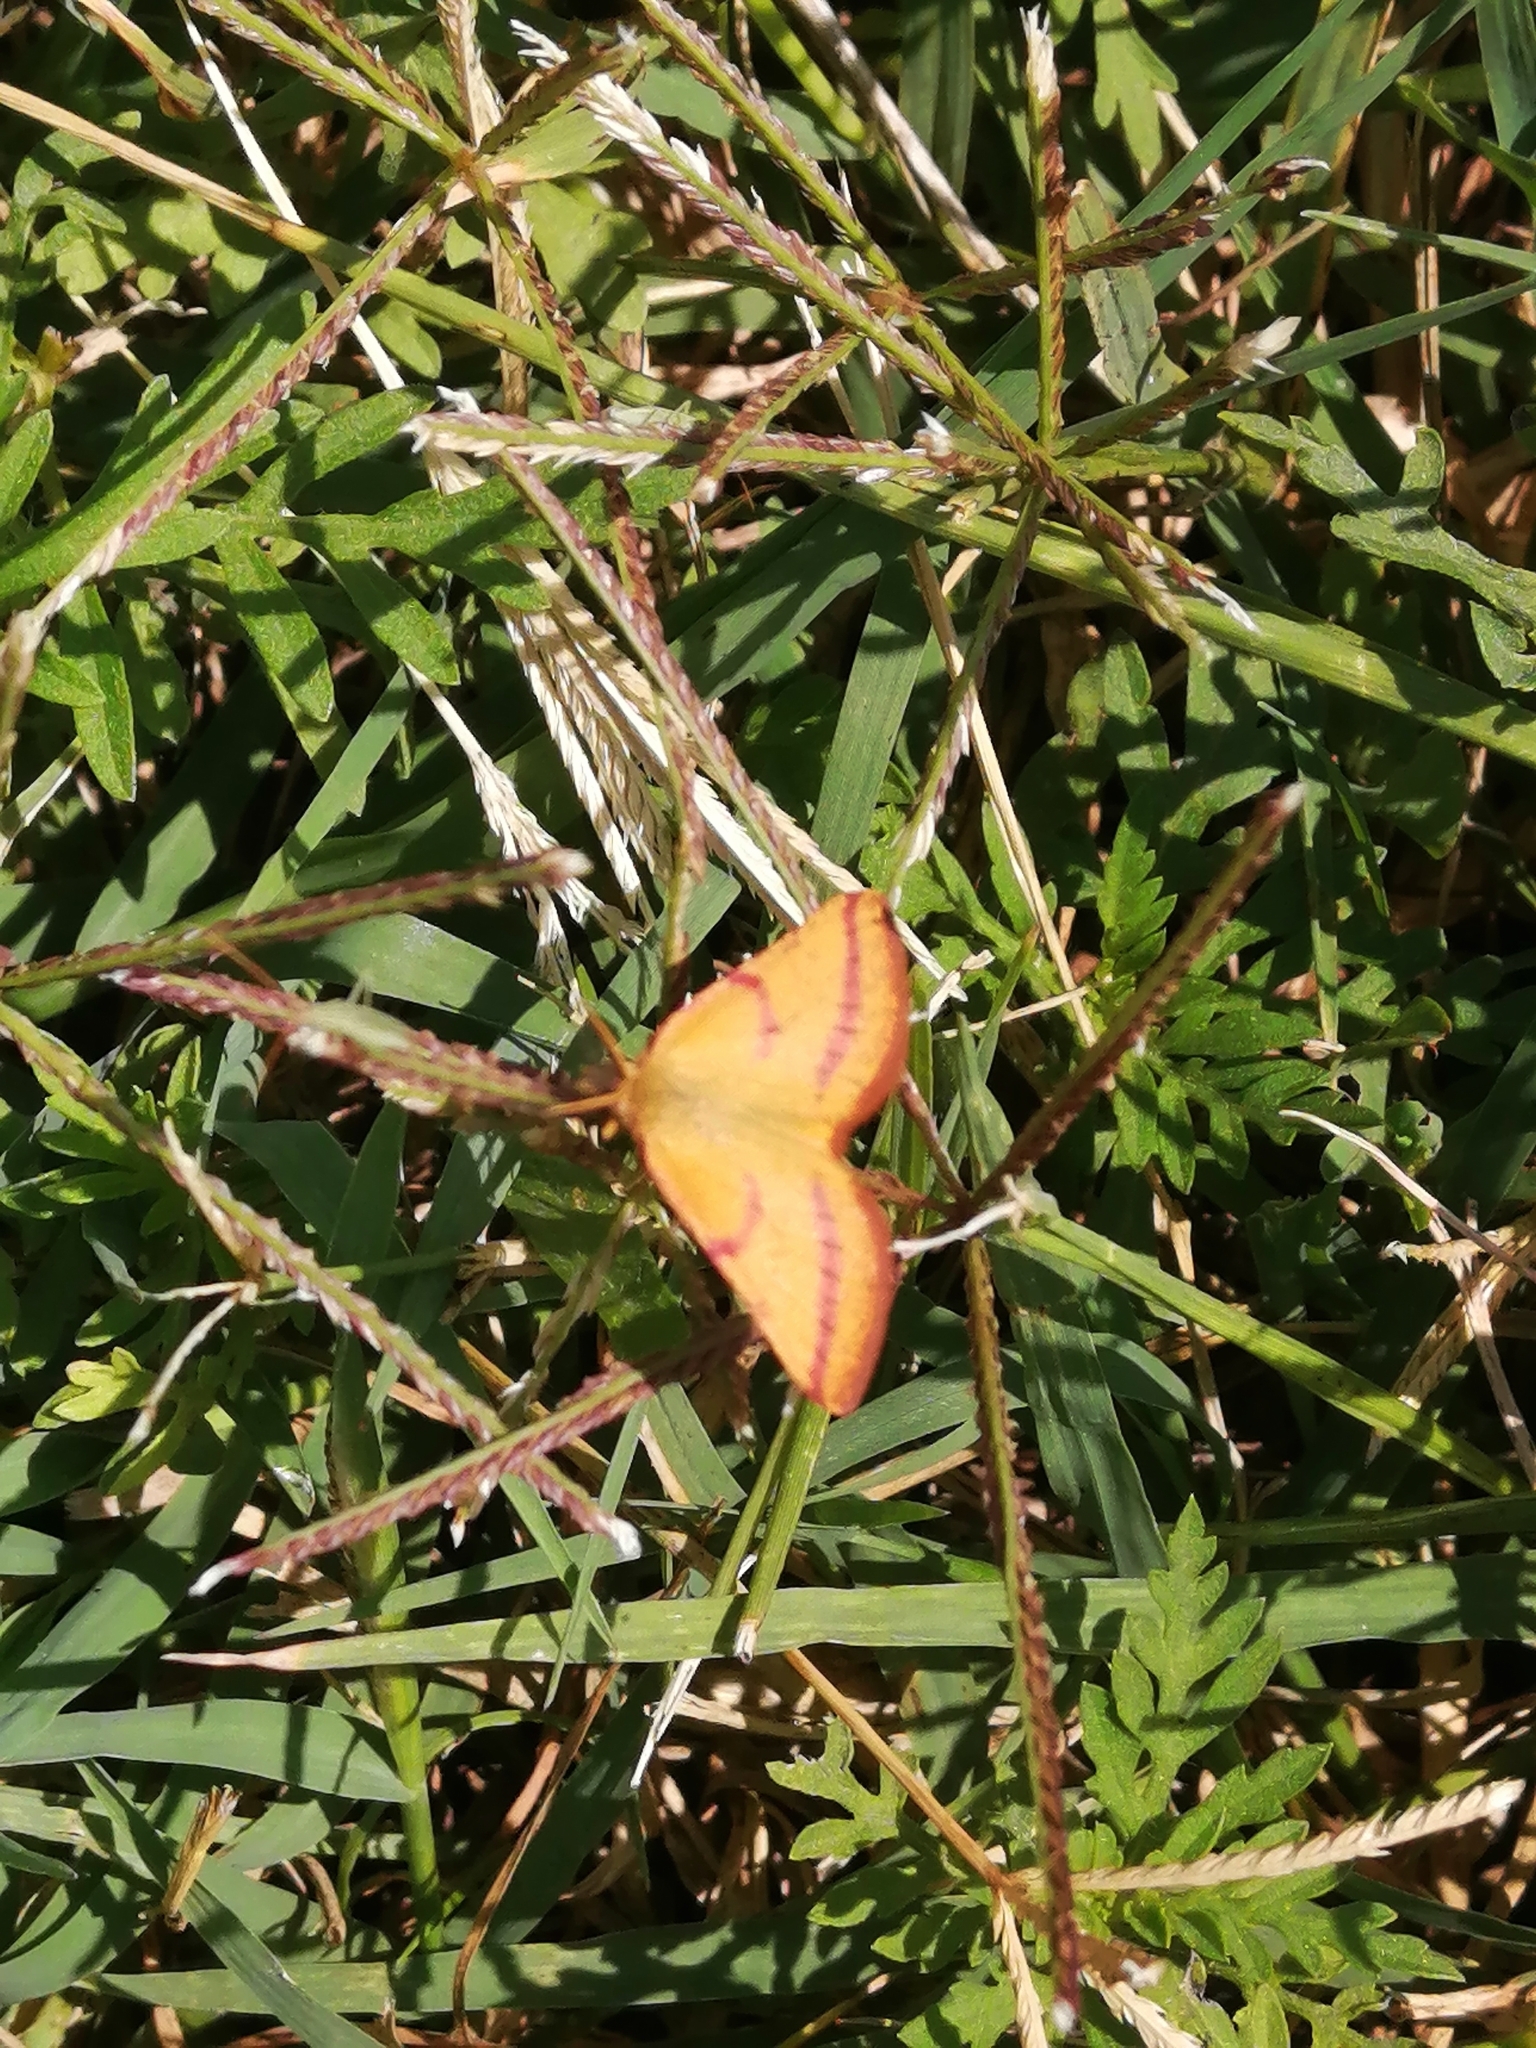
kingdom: Animalia
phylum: Arthropoda
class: Insecta
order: Lepidoptera
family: Geometridae
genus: Lythria
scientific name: Lythria purpuraria
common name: Purple-barred yellow
